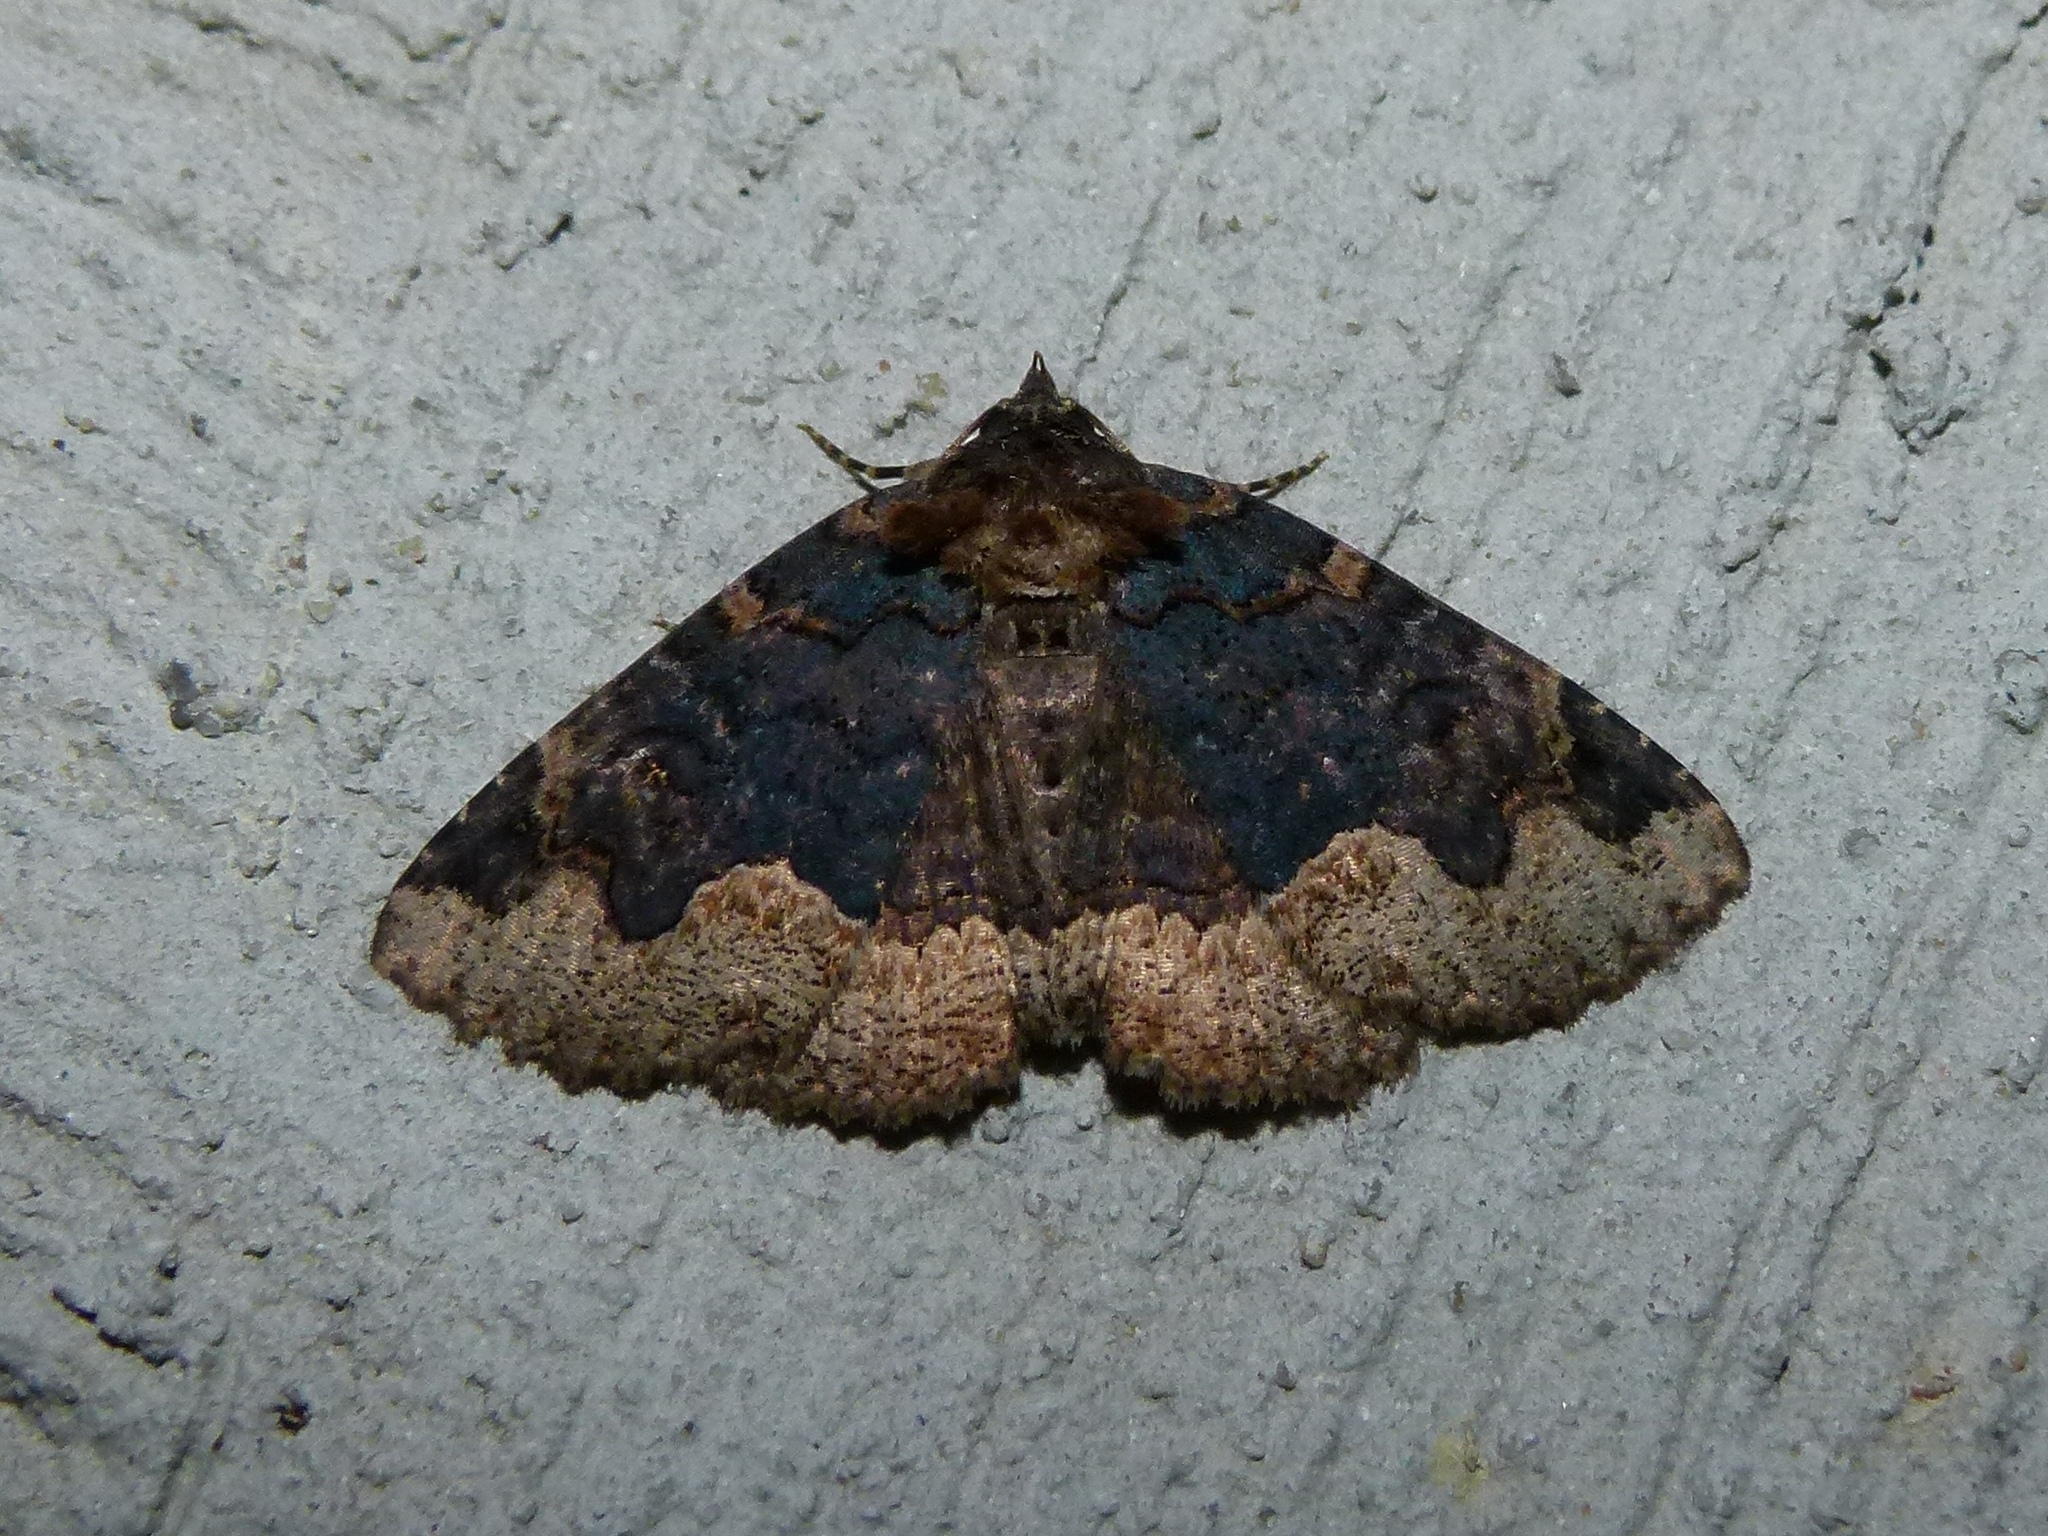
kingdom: Animalia
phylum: Arthropoda
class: Insecta
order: Lepidoptera
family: Erebidae
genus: Zale
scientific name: Zale horrida
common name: Horrid zale moth
